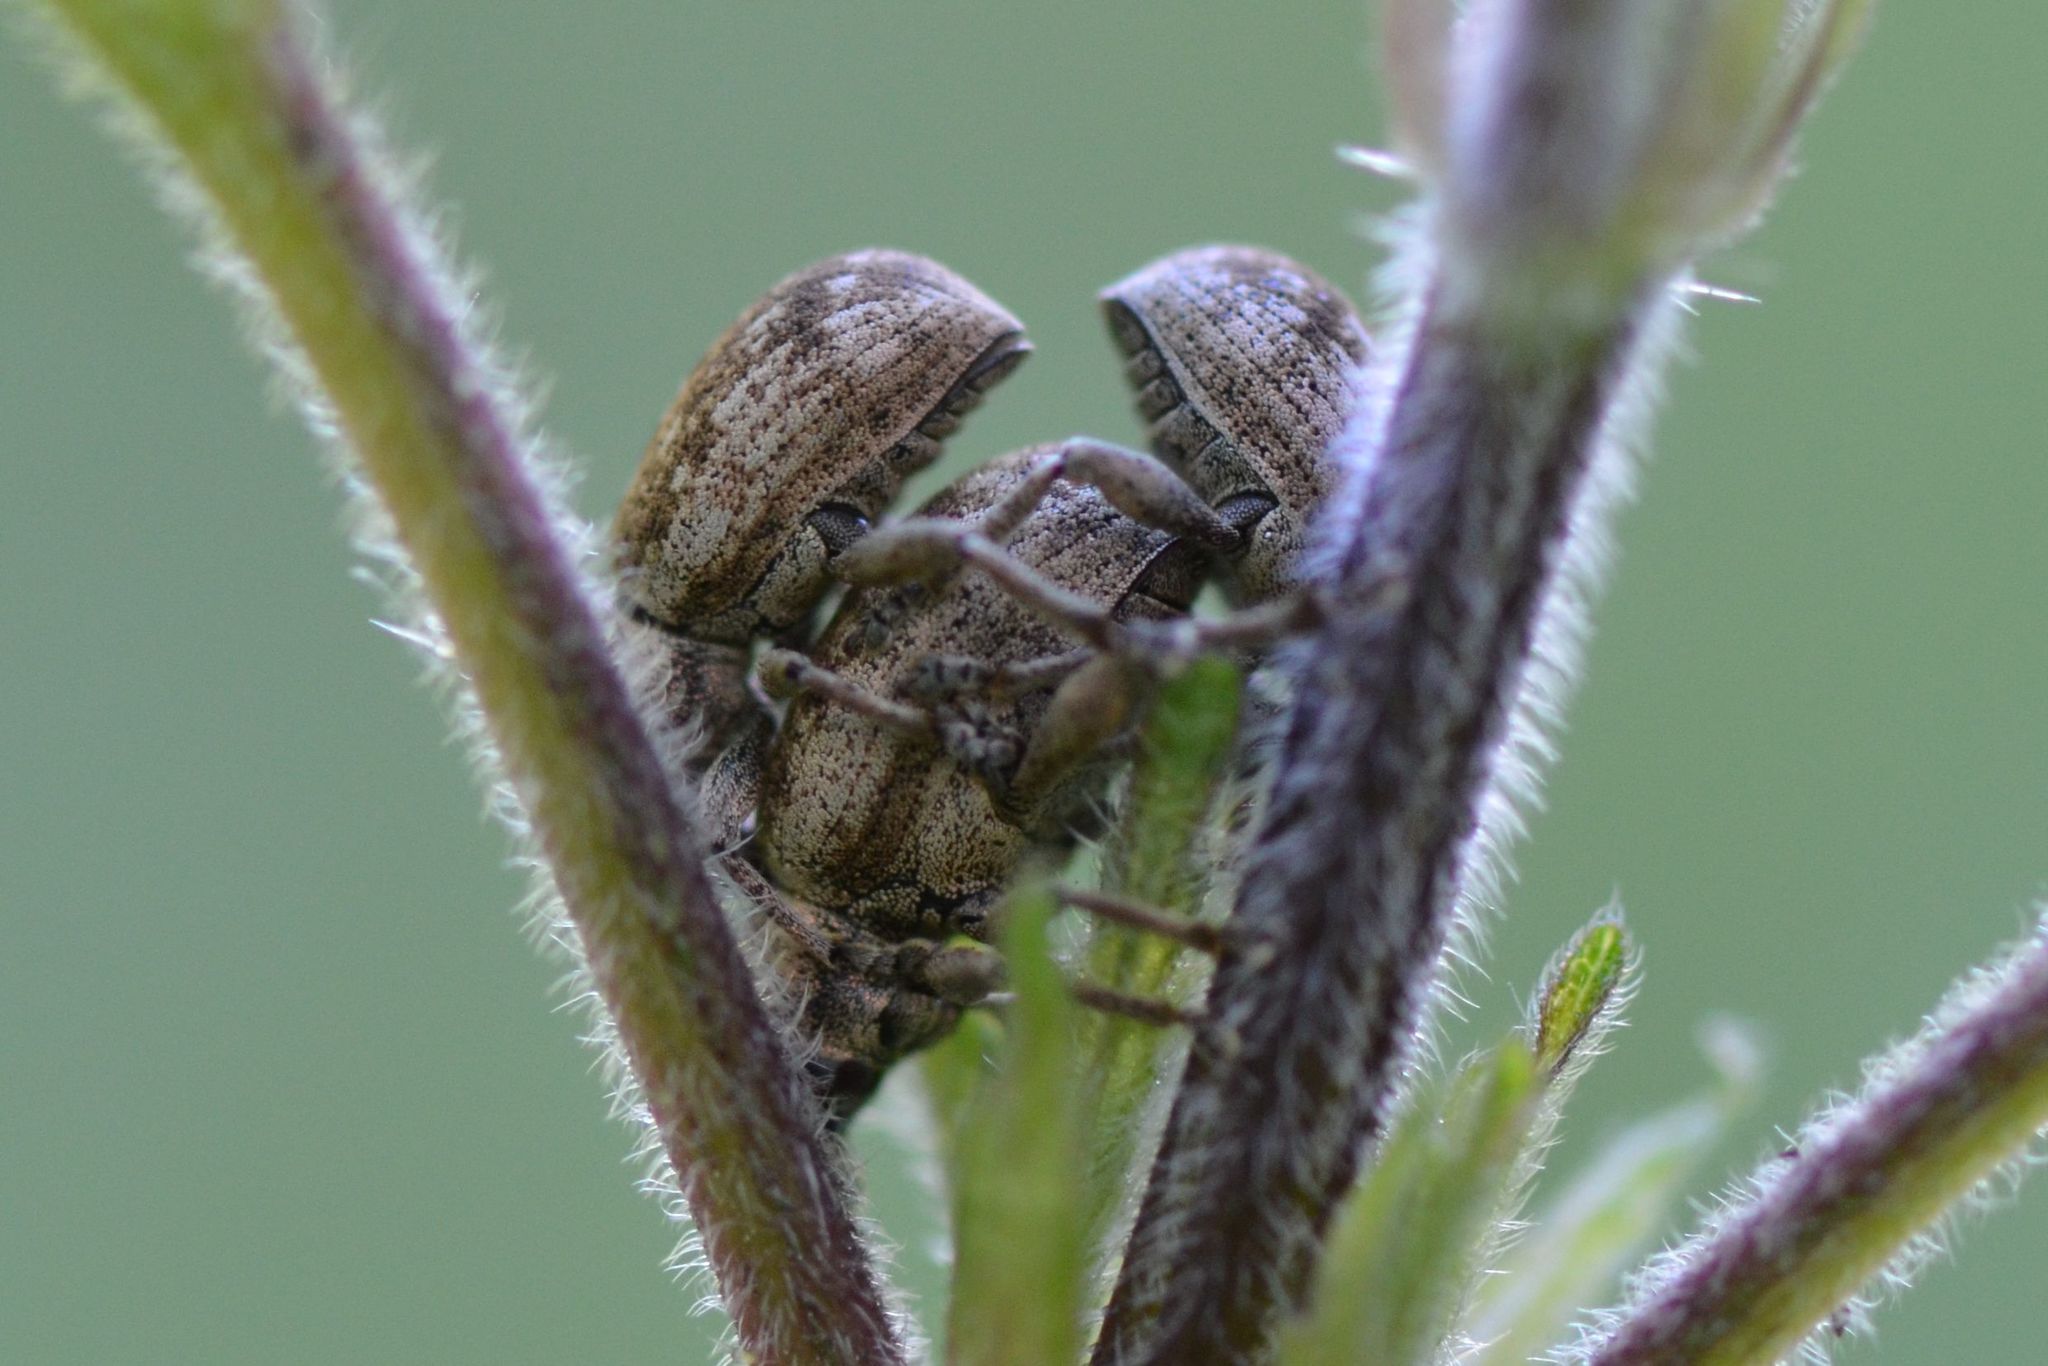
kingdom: Animalia
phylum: Arthropoda
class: Insecta
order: Coleoptera
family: Curculionidae
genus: Peritelus
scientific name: Peritelus sphaeroides
